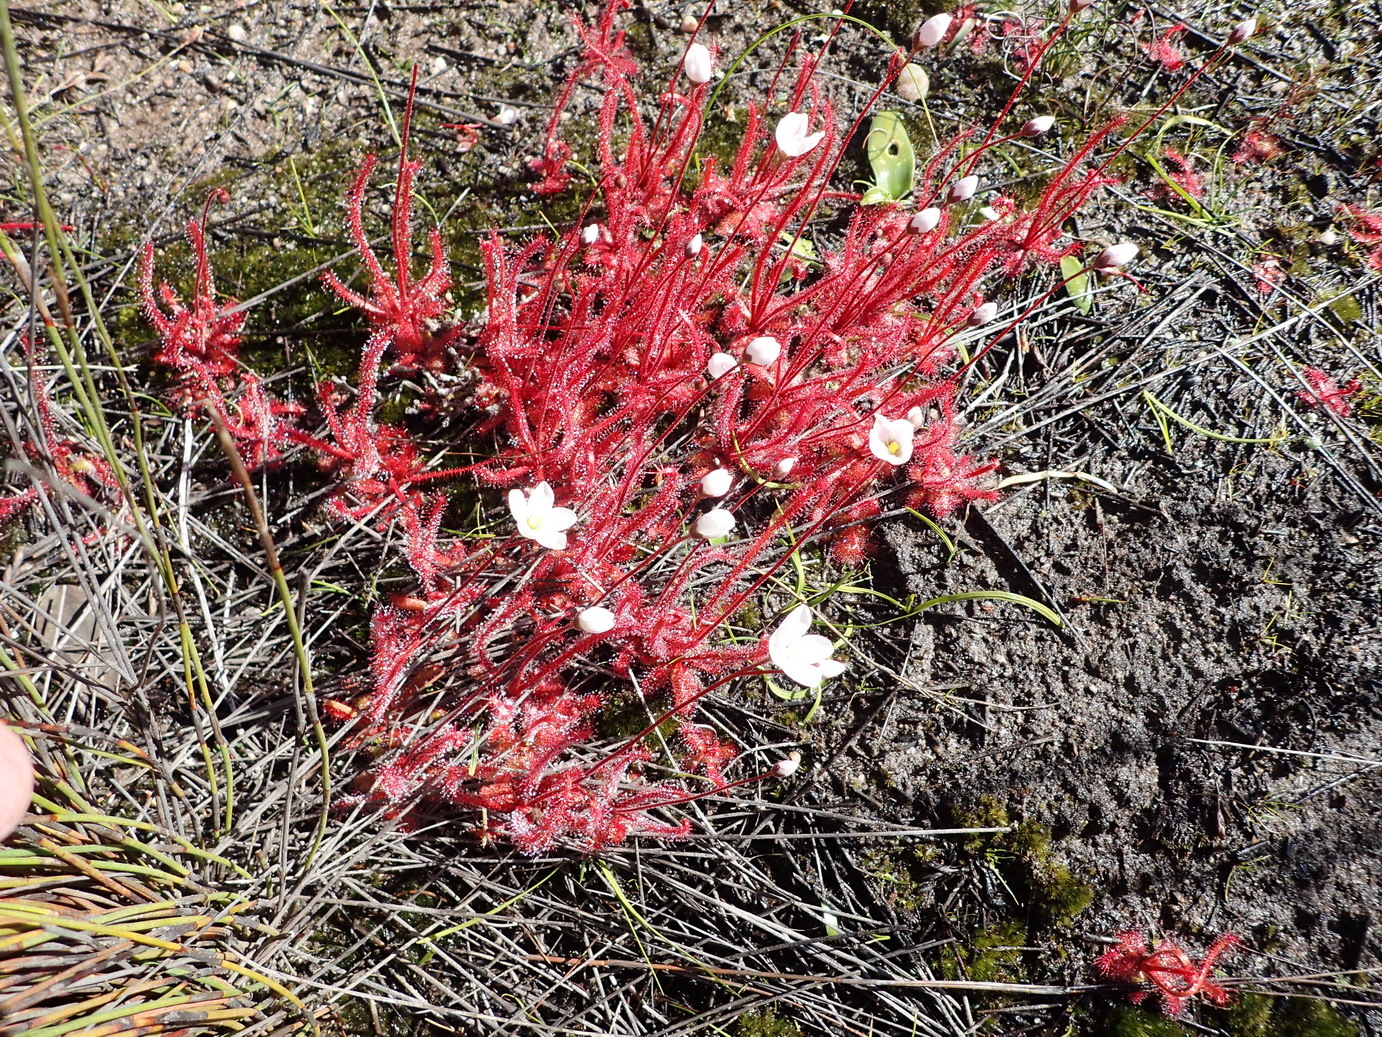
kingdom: Plantae
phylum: Tracheophyta
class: Magnoliopsida
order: Caryophyllales
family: Droseraceae
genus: Drosera
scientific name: Drosera alba
